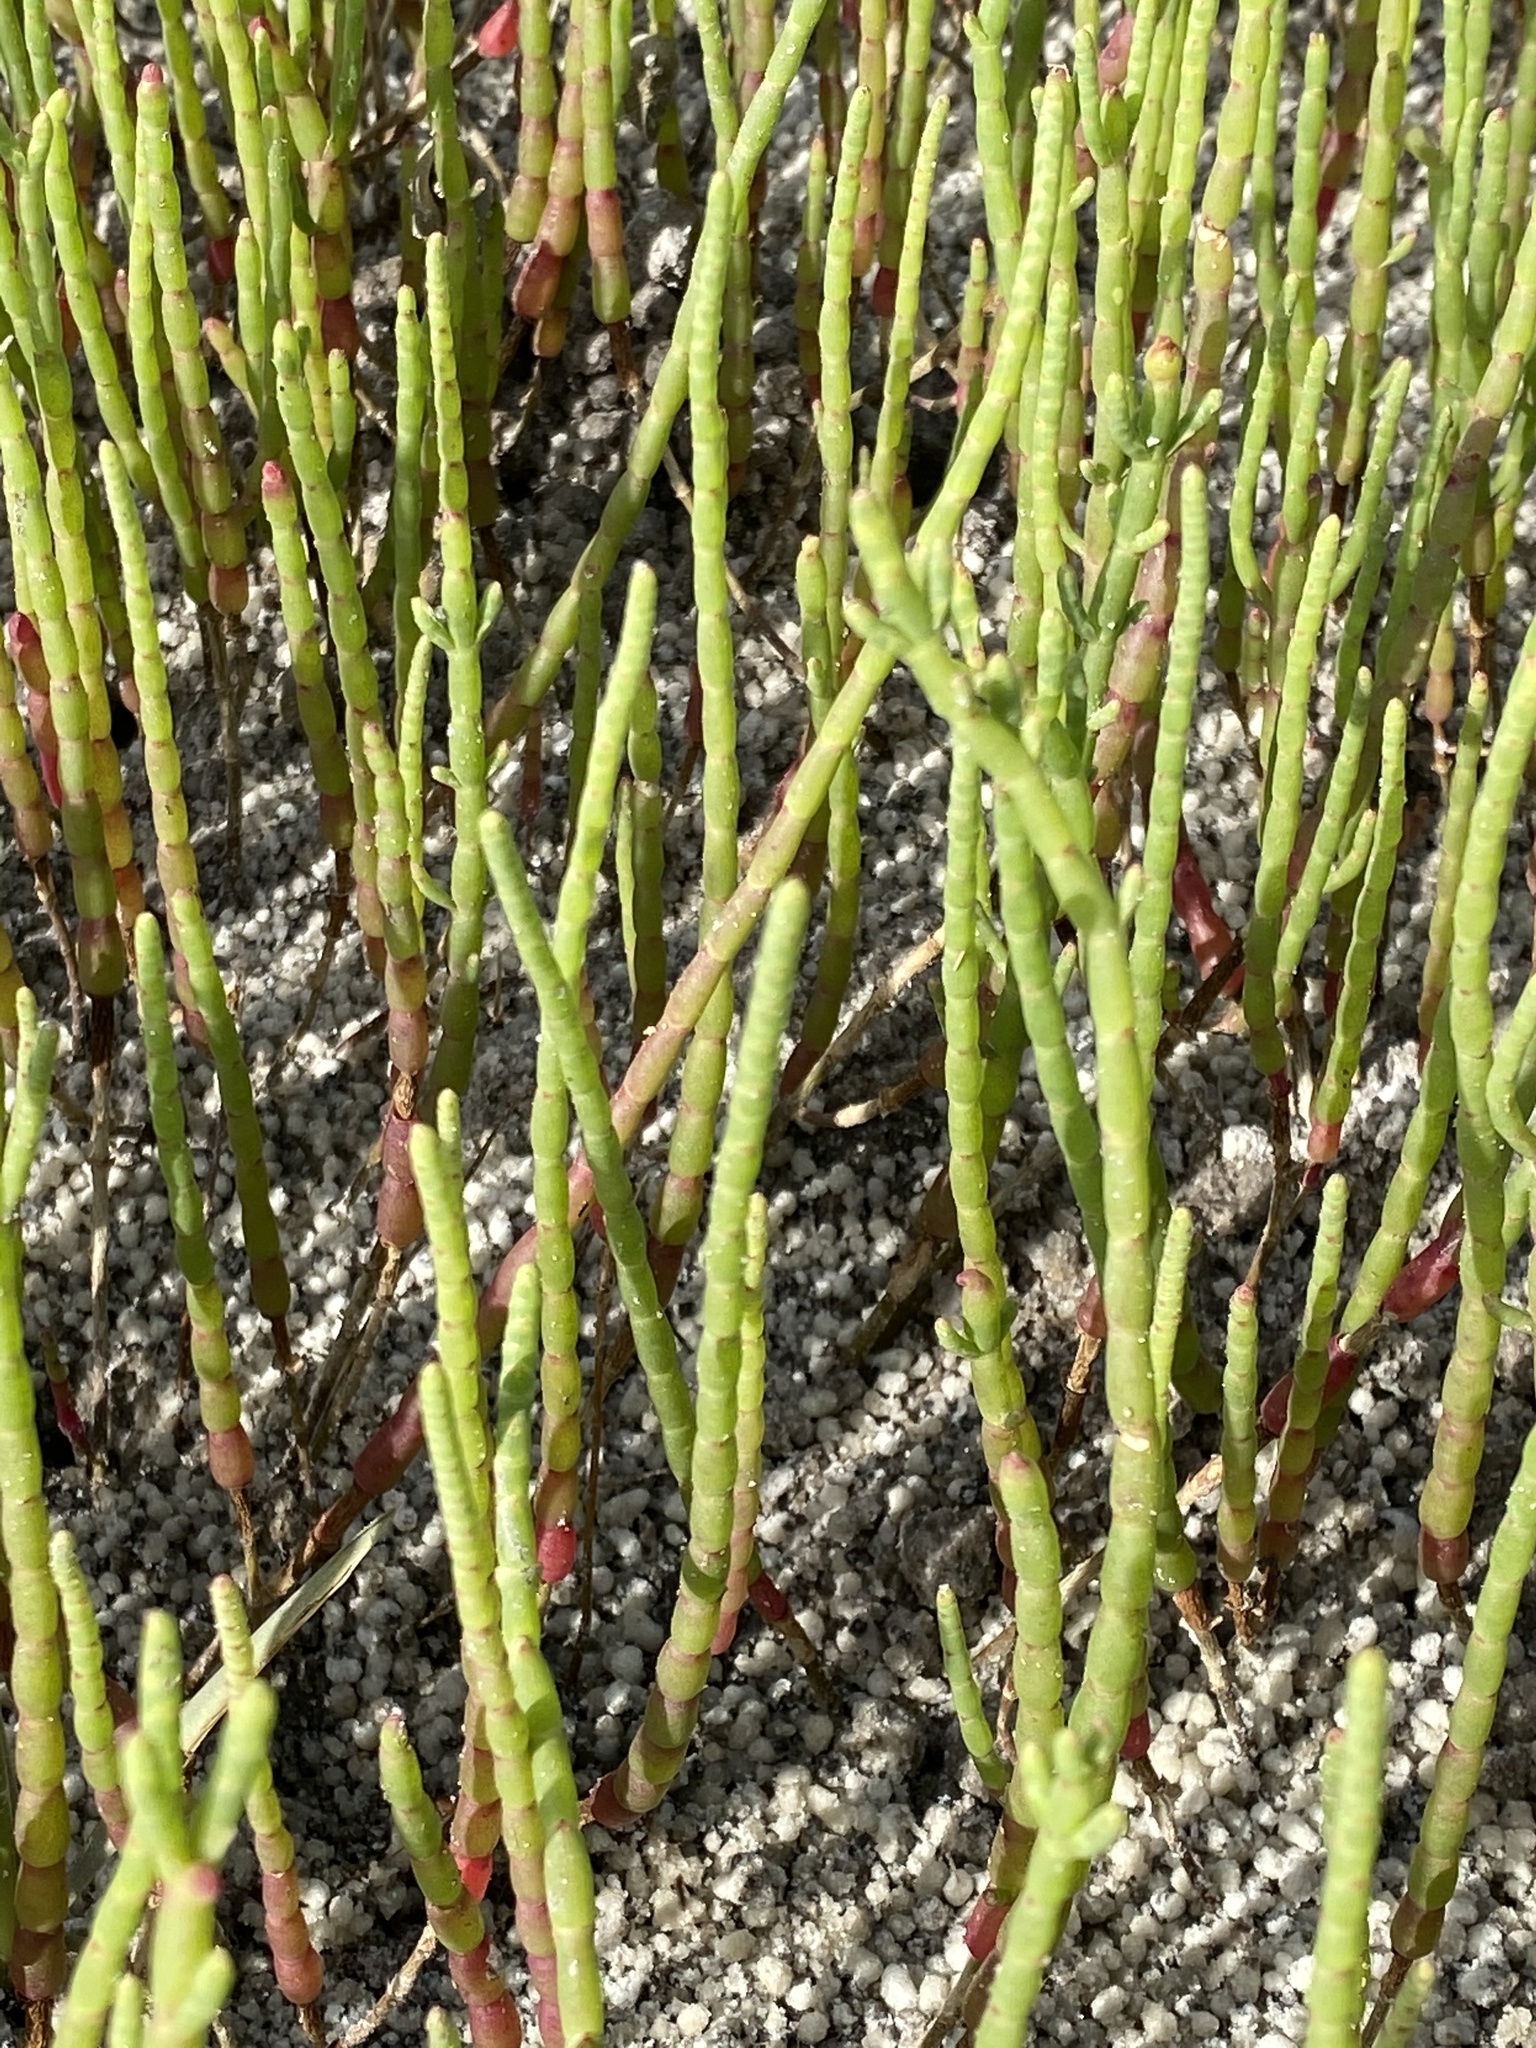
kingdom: Plantae
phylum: Tracheophyta
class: Magnoliopsida
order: Caryophyllales
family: Amaranthaceae
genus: Salicornia
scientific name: Salicornia ambigua
